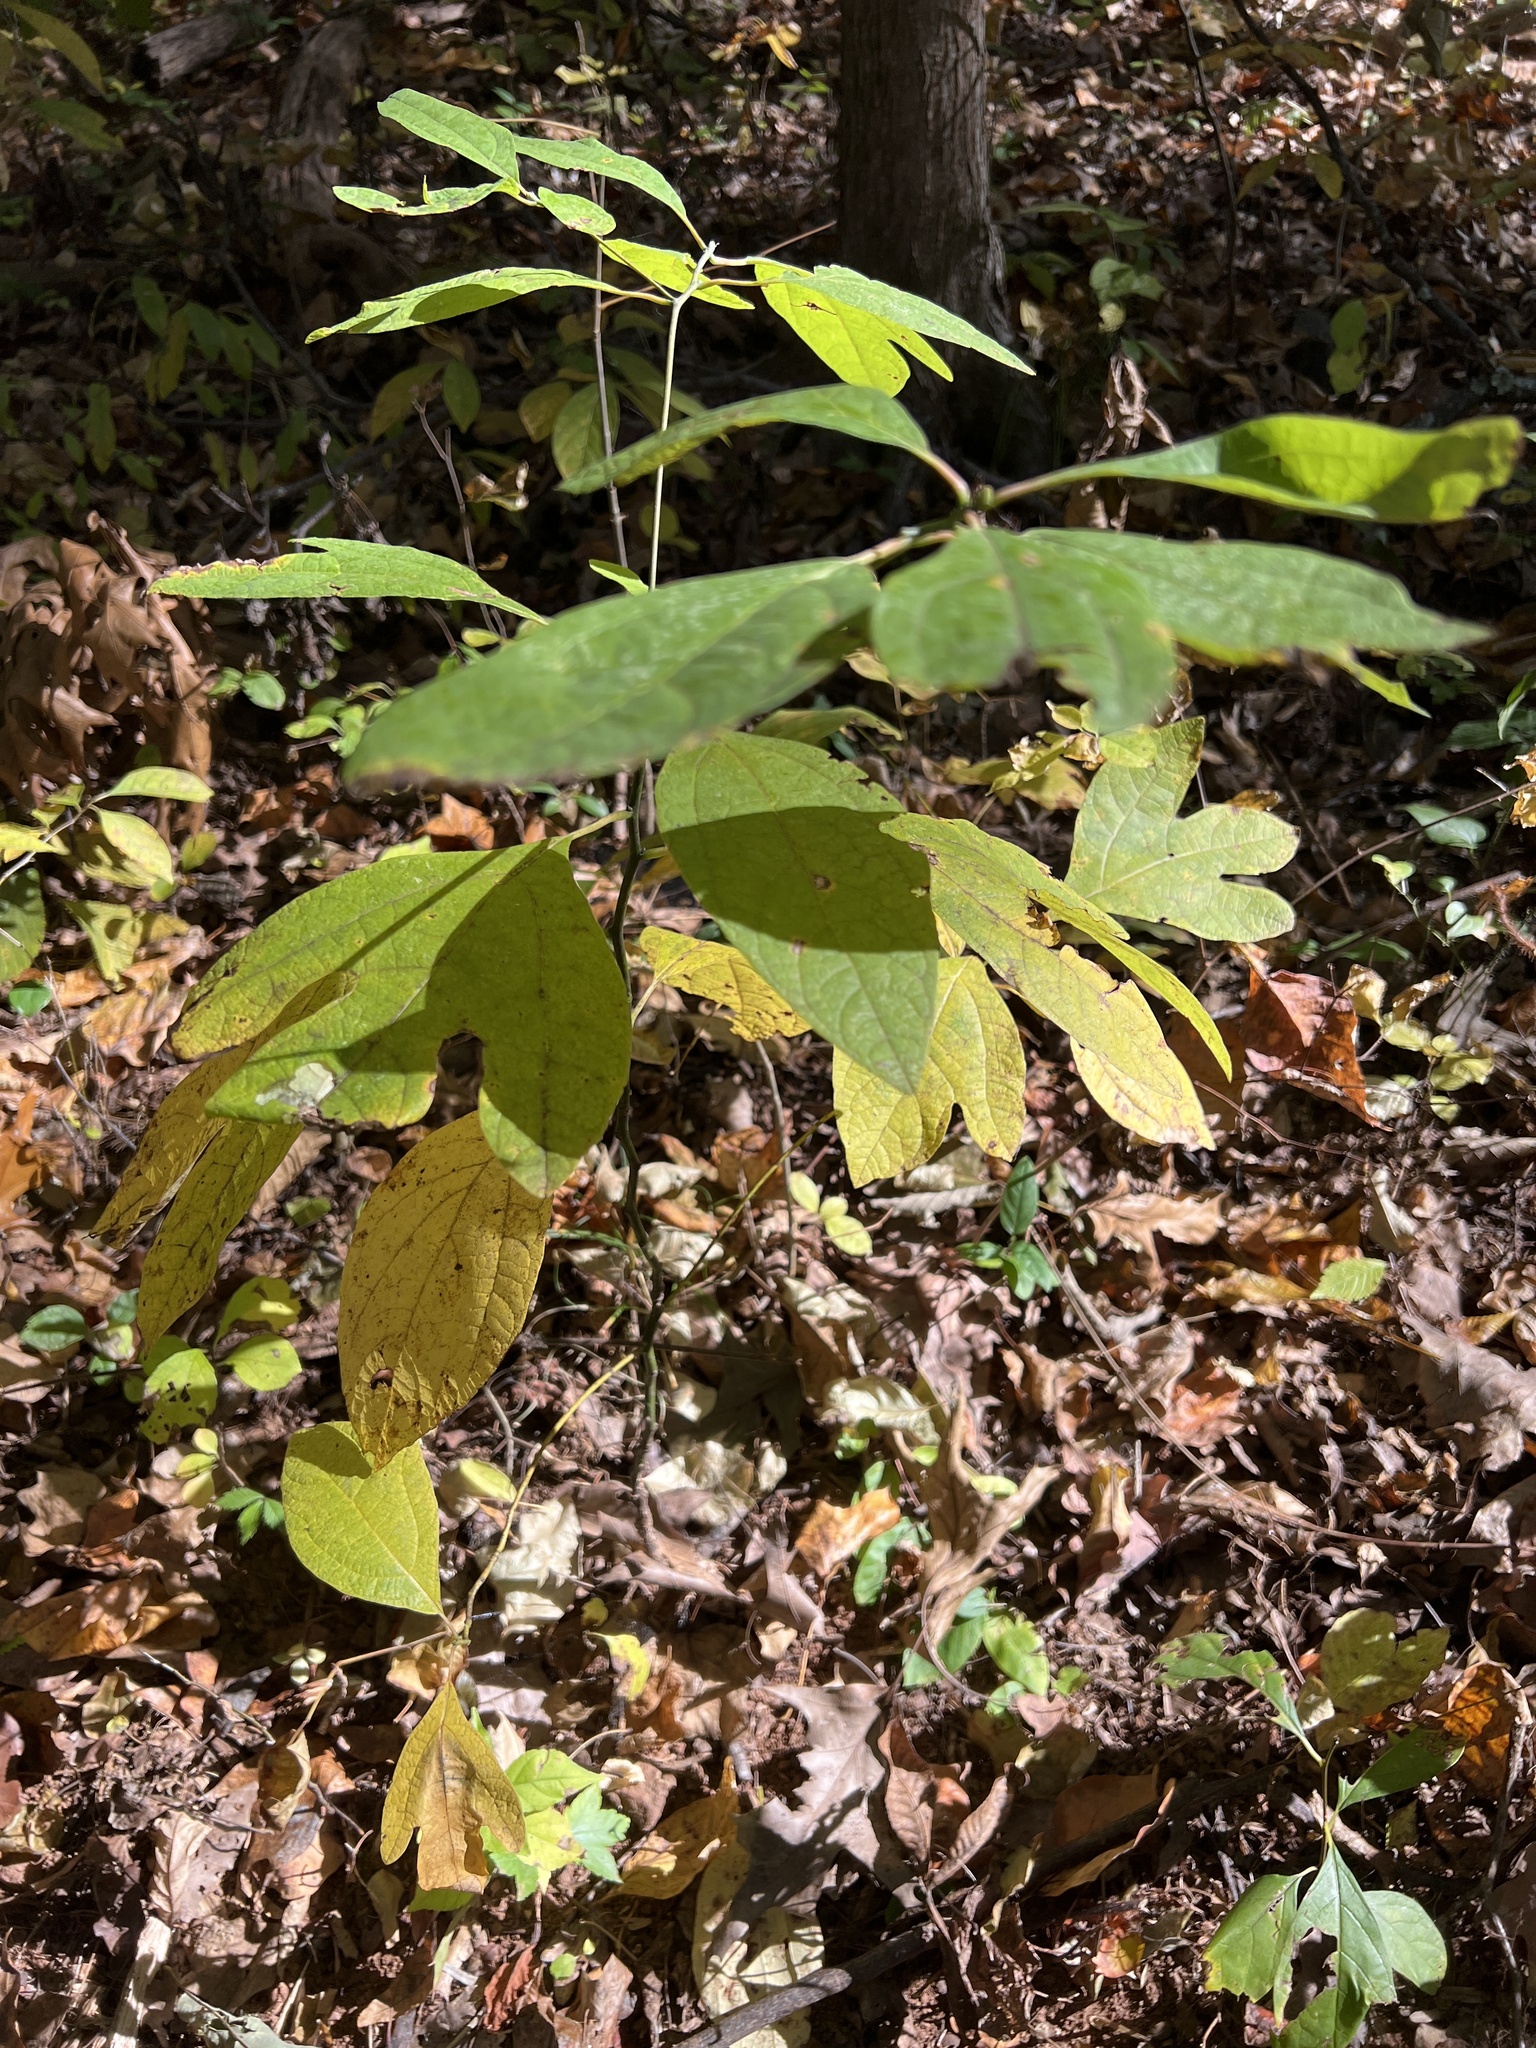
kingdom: Plantae
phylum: Tracheophyta
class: Magnoliopsida
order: Laurales
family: Lauraceae
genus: Sassafras
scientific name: Sassafras albidum
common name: Sassafras
